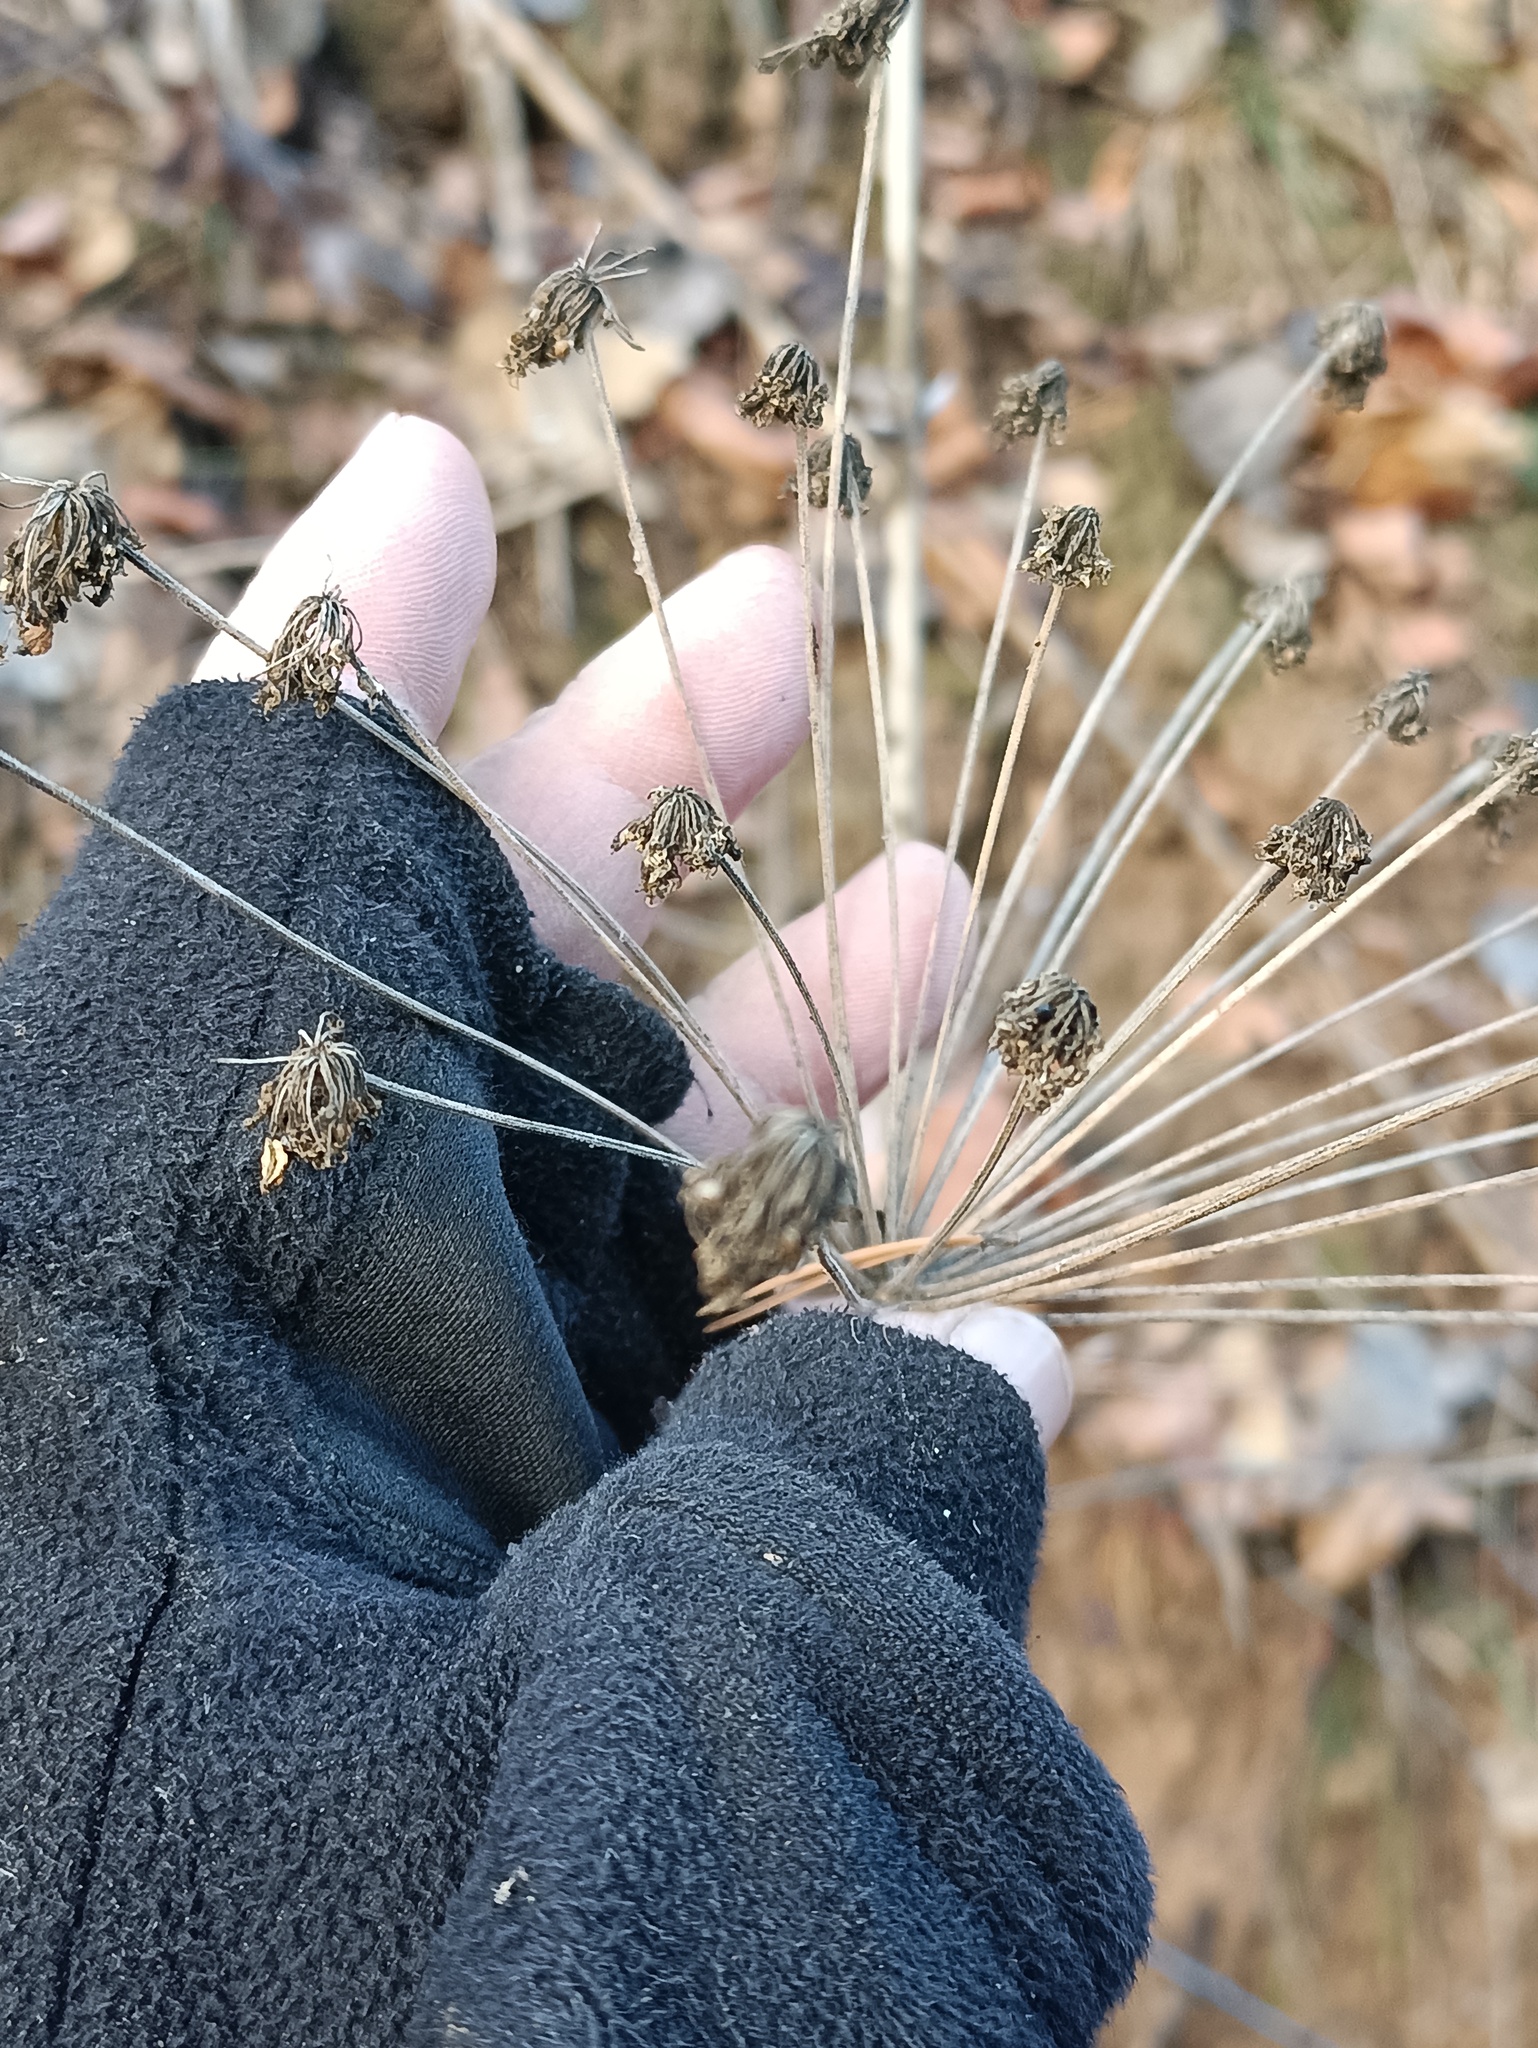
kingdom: Plantae
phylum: Tracheophyta
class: Magnoliopsida
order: Apiales
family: Apiaceae
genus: Angelica
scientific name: Angelica sylvestris
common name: Wild angelica
